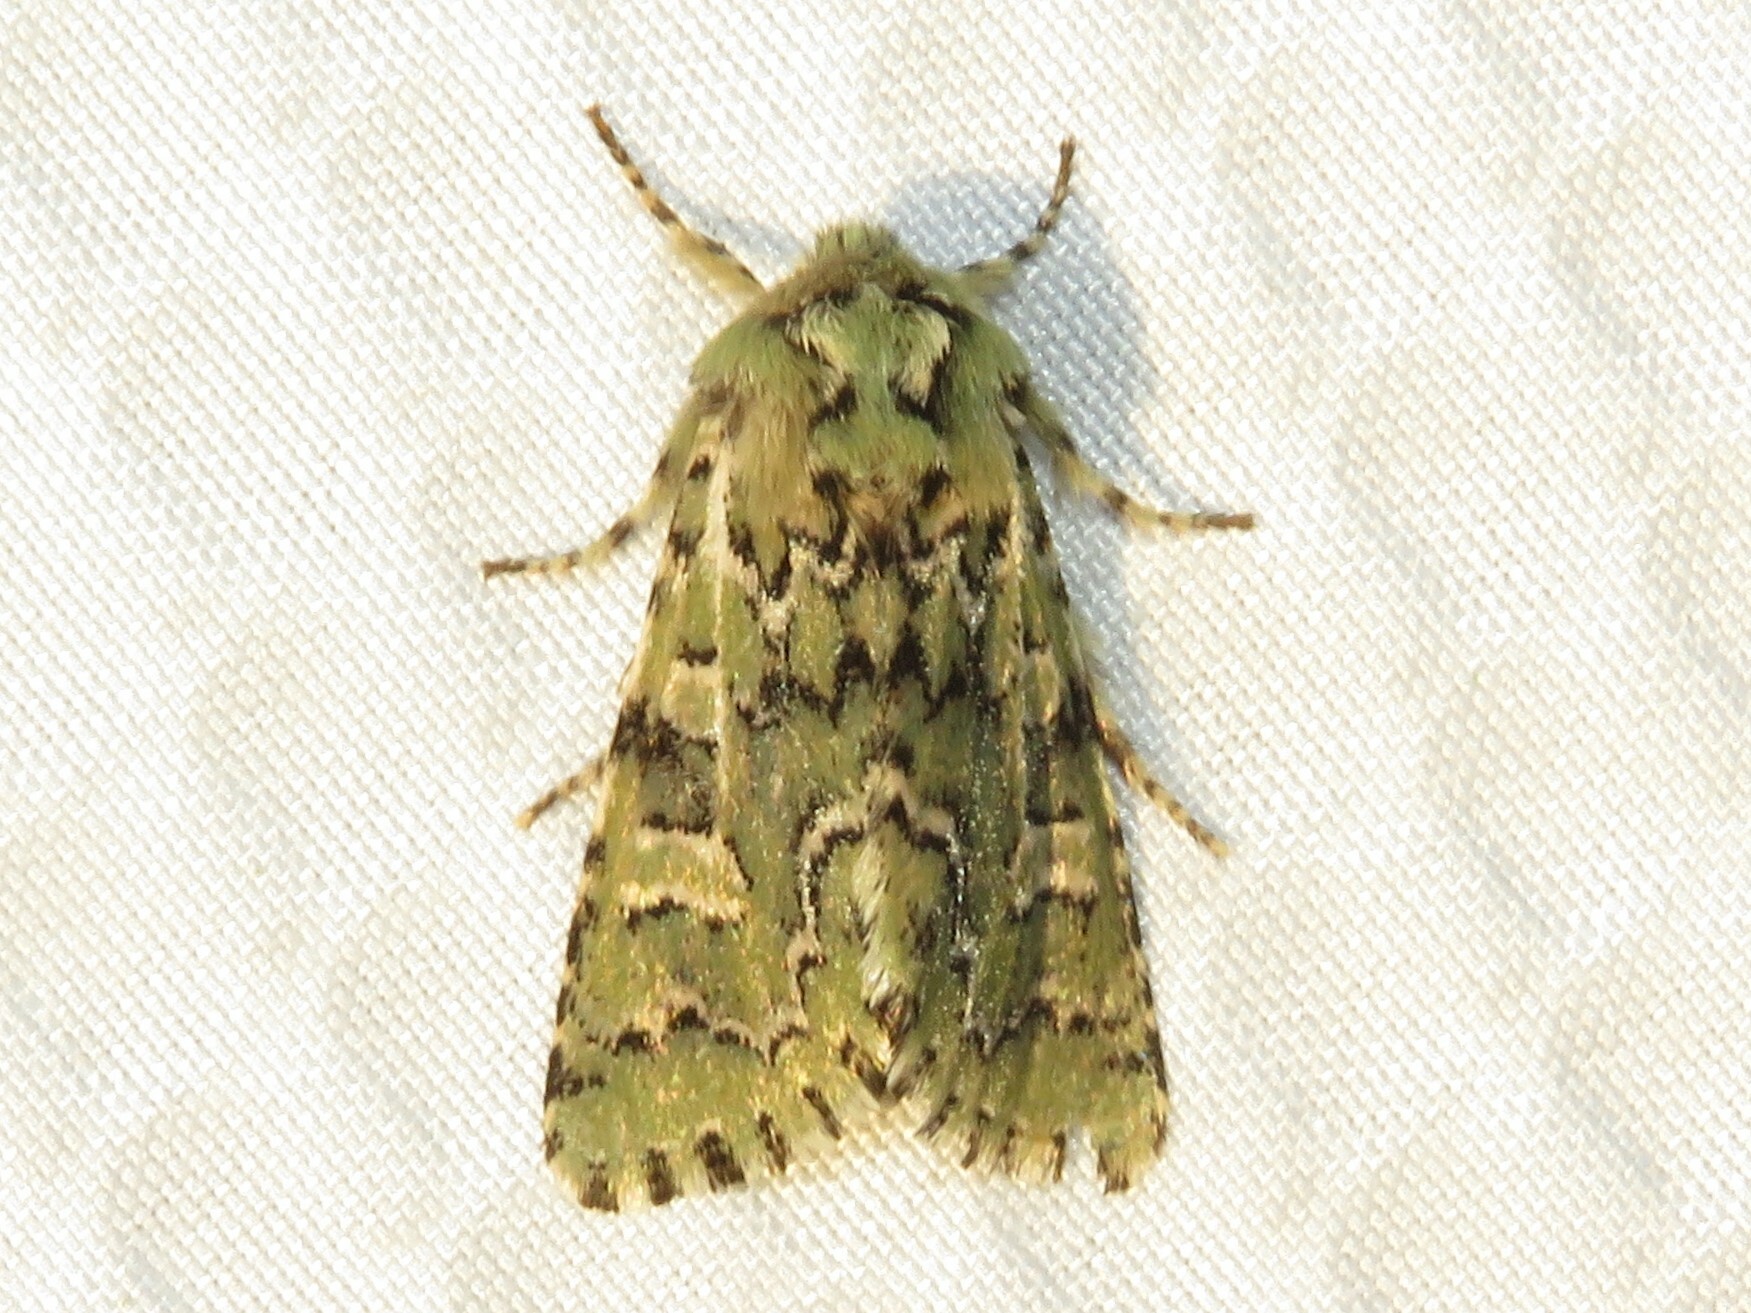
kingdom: Animalia
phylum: Arthropoda
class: Insecta
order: Lepidoptera
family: Noctuidae
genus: Feralia
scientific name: Feralia jocosa
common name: Joker
